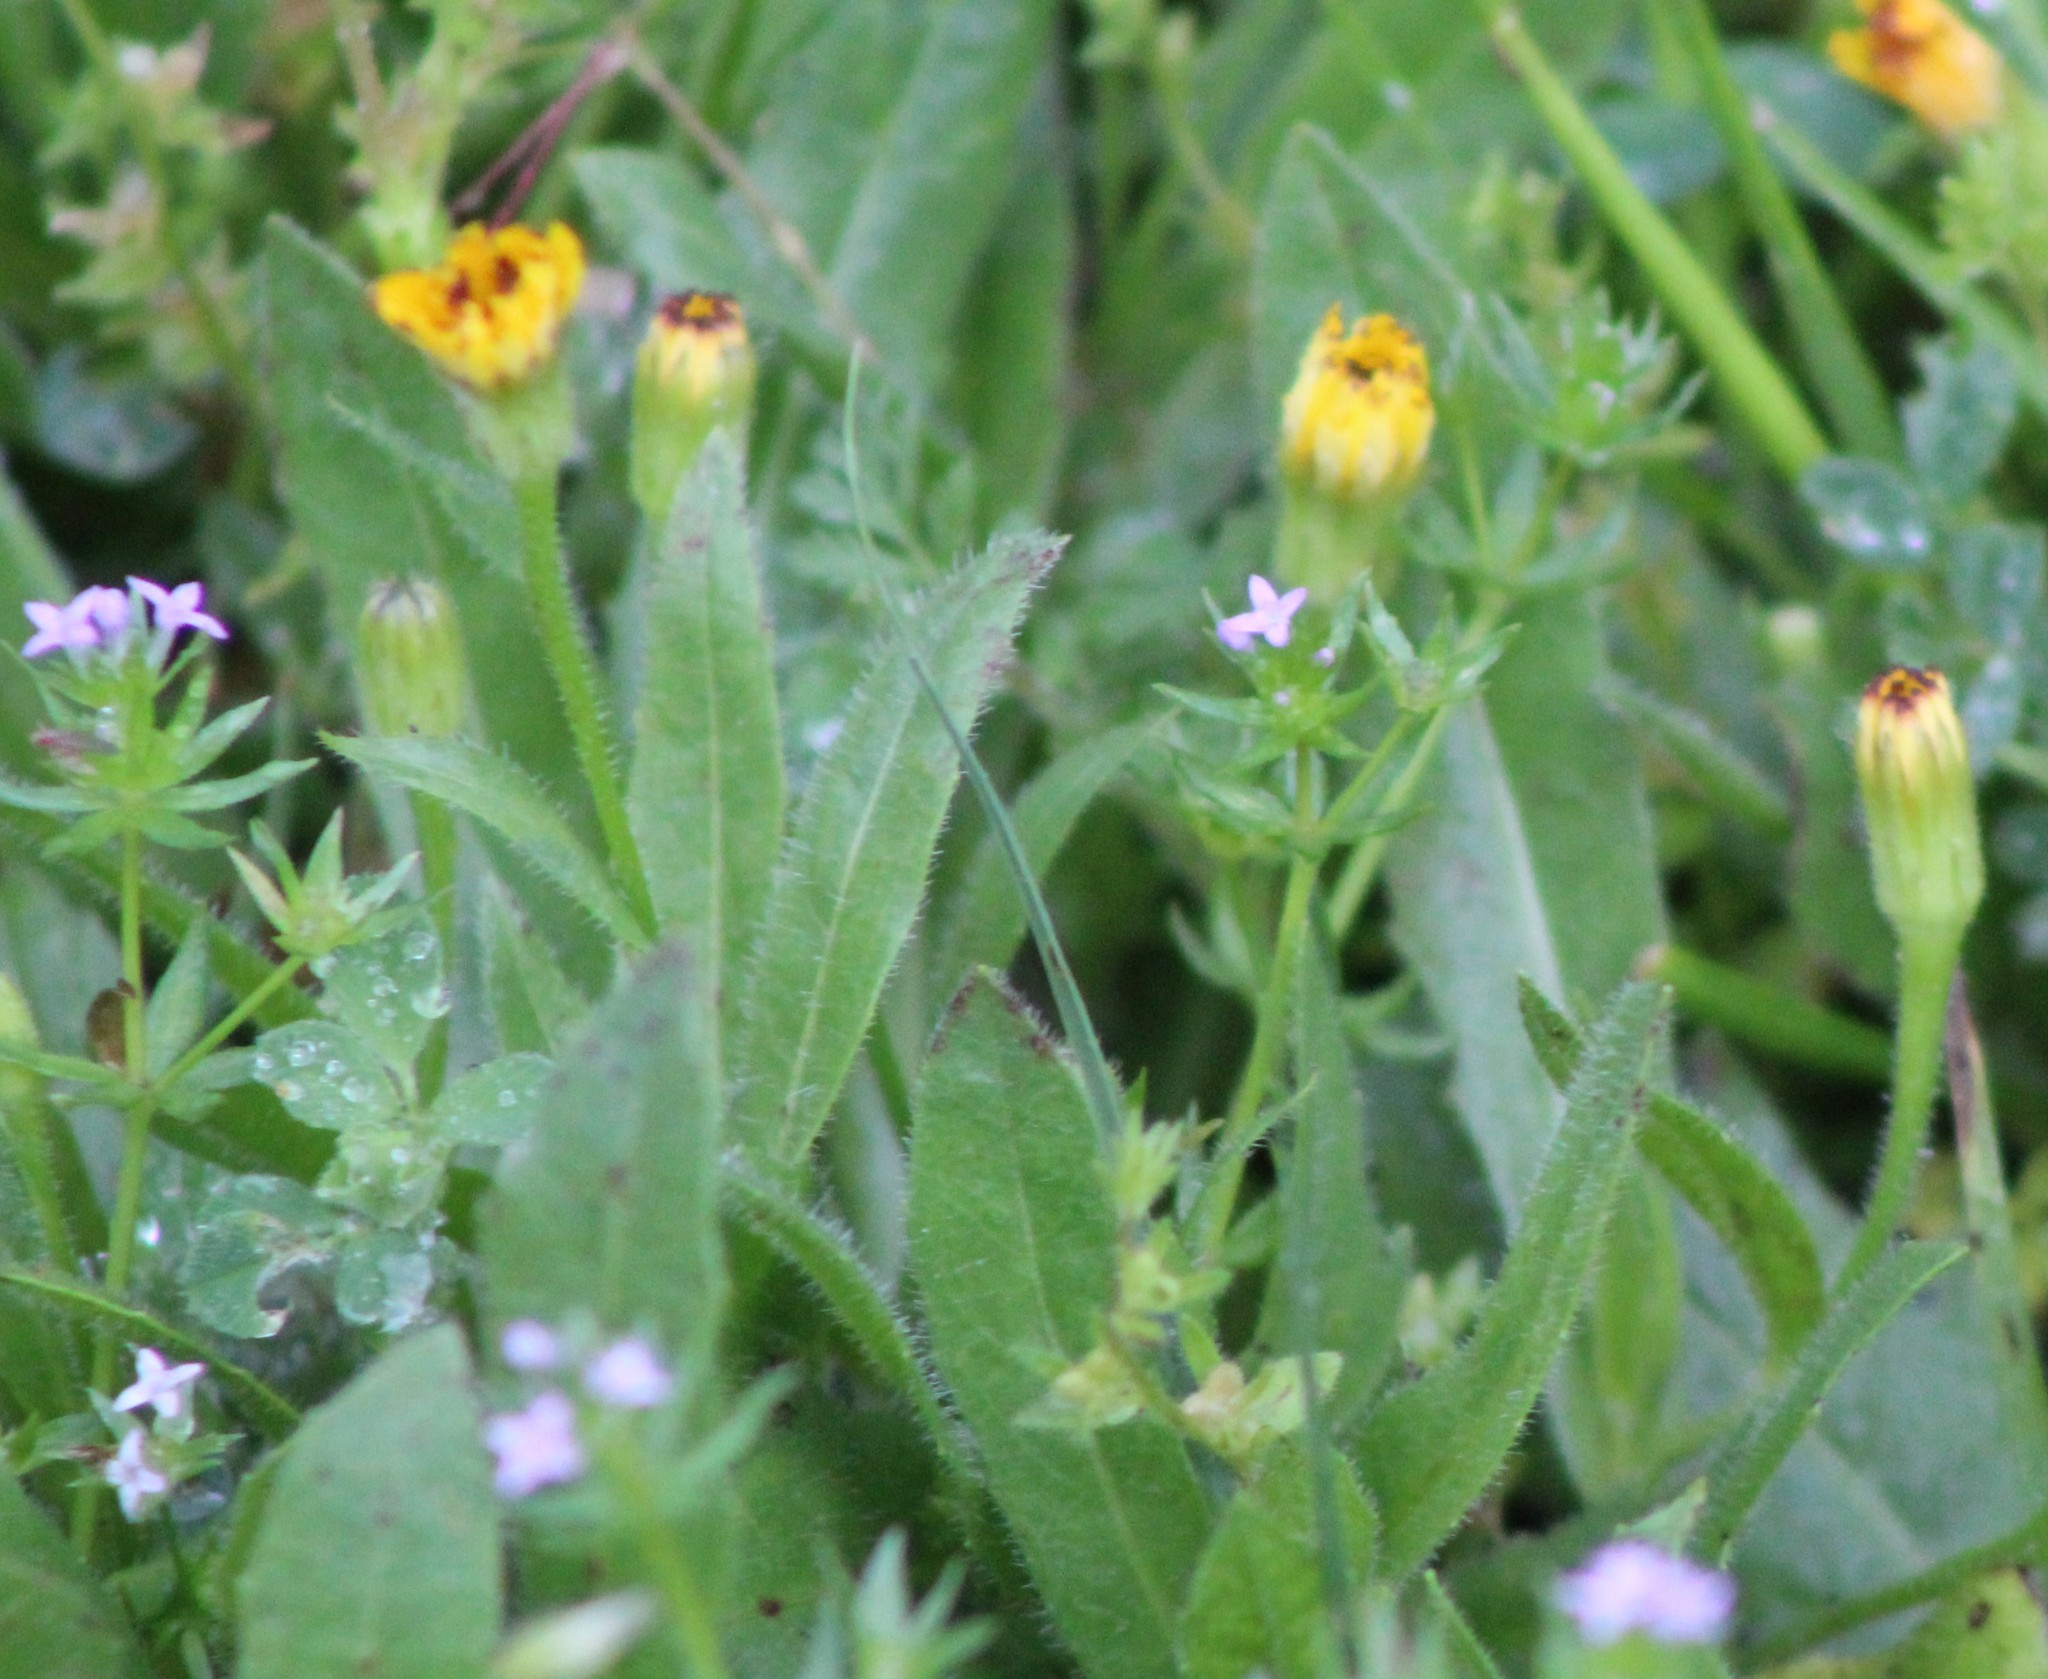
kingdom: Plantae
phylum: Tracheophyta
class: Magnoliopsida
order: Asterales
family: Asteraceae
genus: Hedypnois
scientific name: Hedypnois rhagadioloides
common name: Cretan weed
